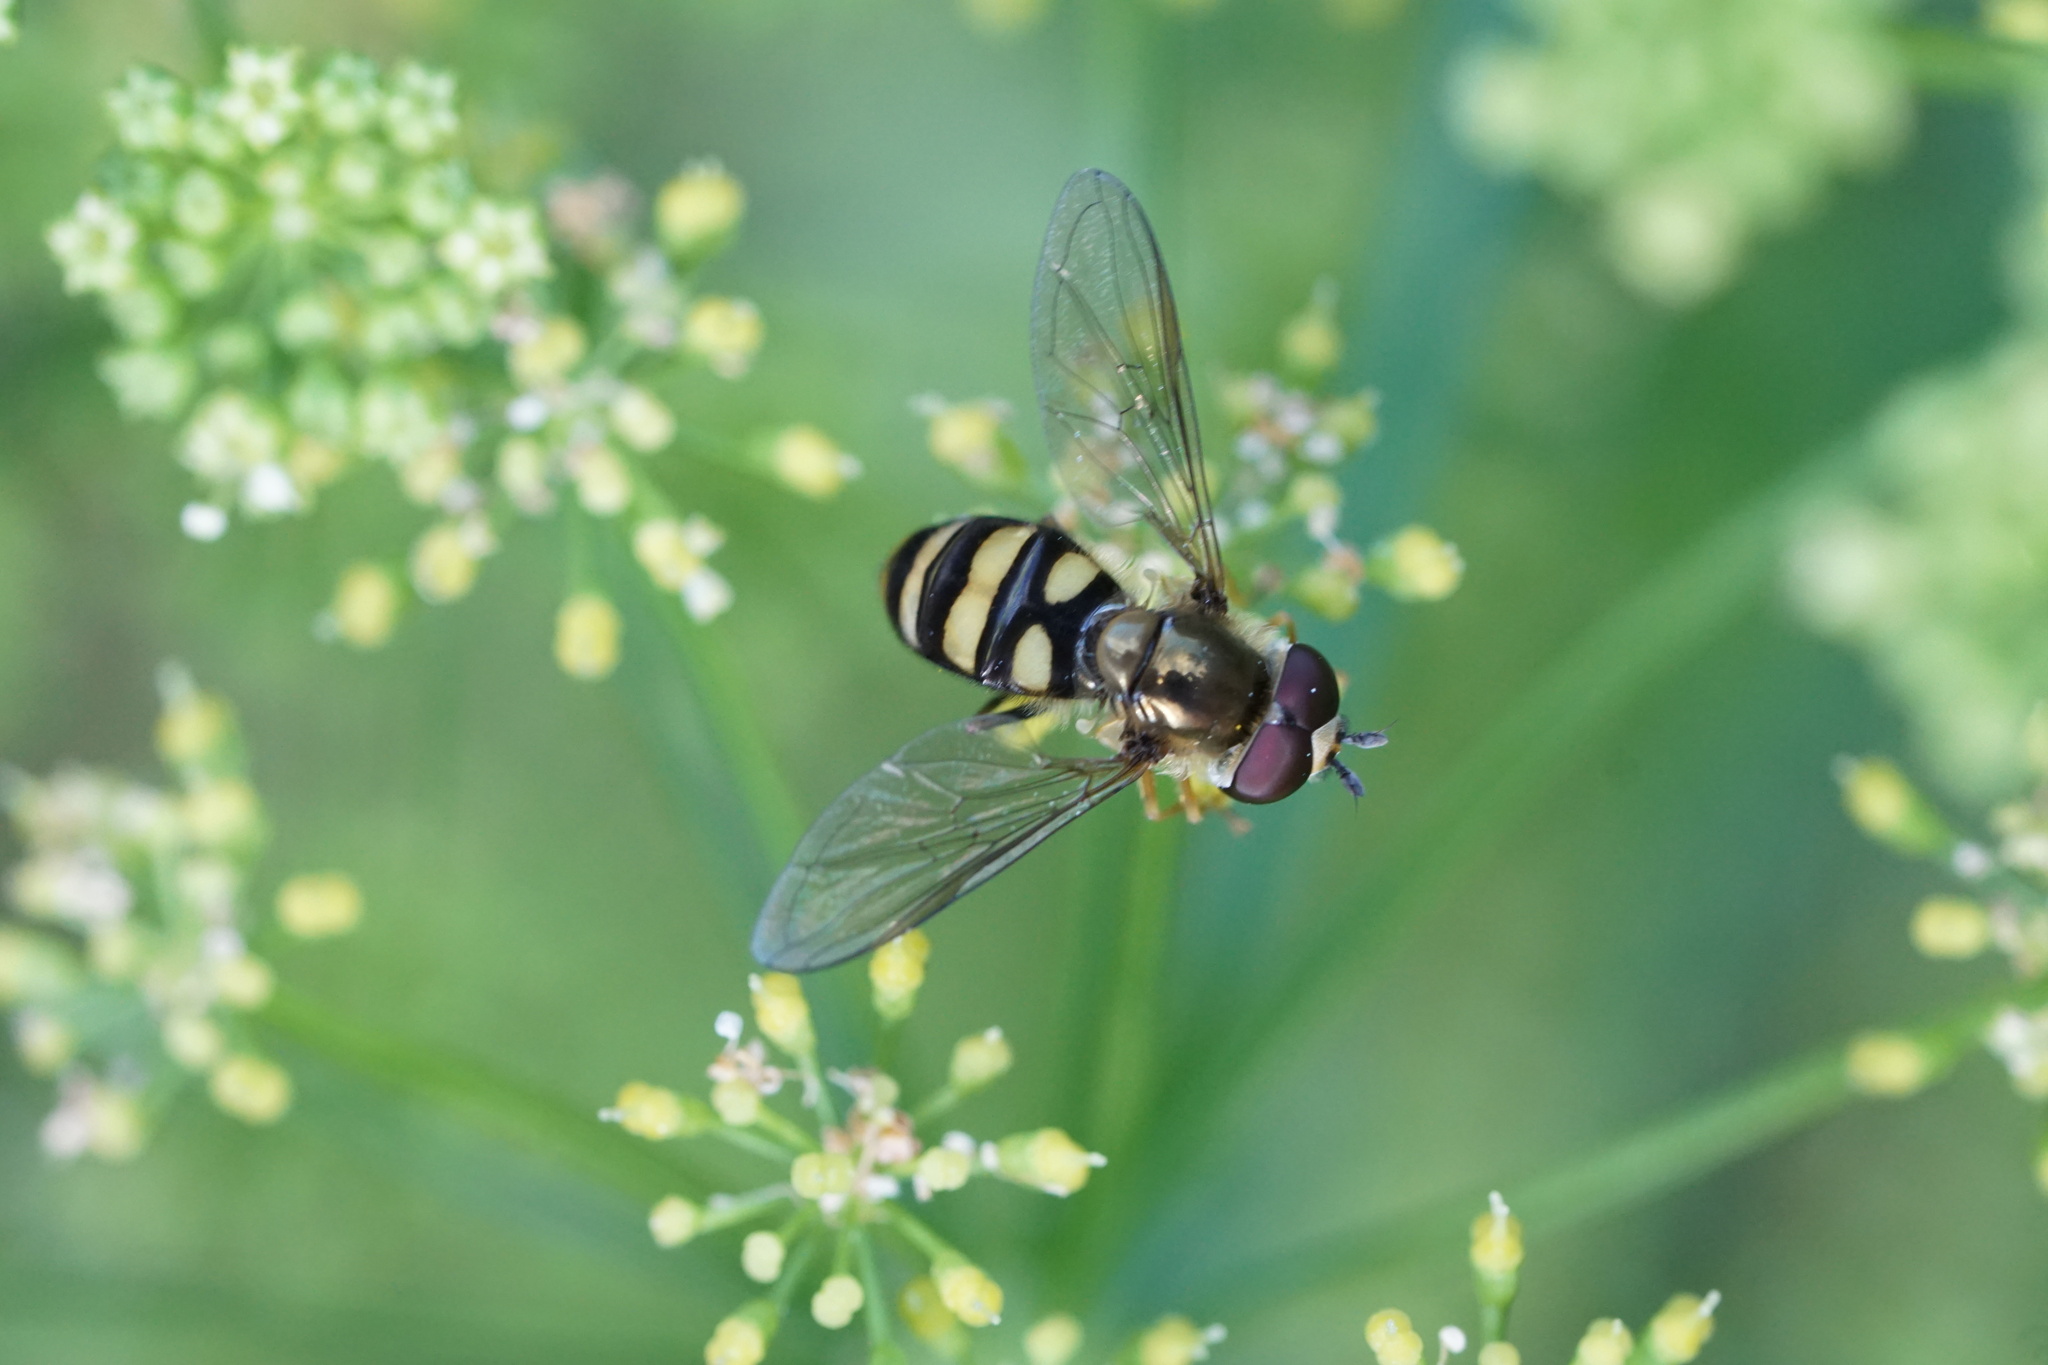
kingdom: Animalia
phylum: Arthropoda
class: Insecta
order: Diptera
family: Syrphidae
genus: Eupeodes
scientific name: Eupeodes
